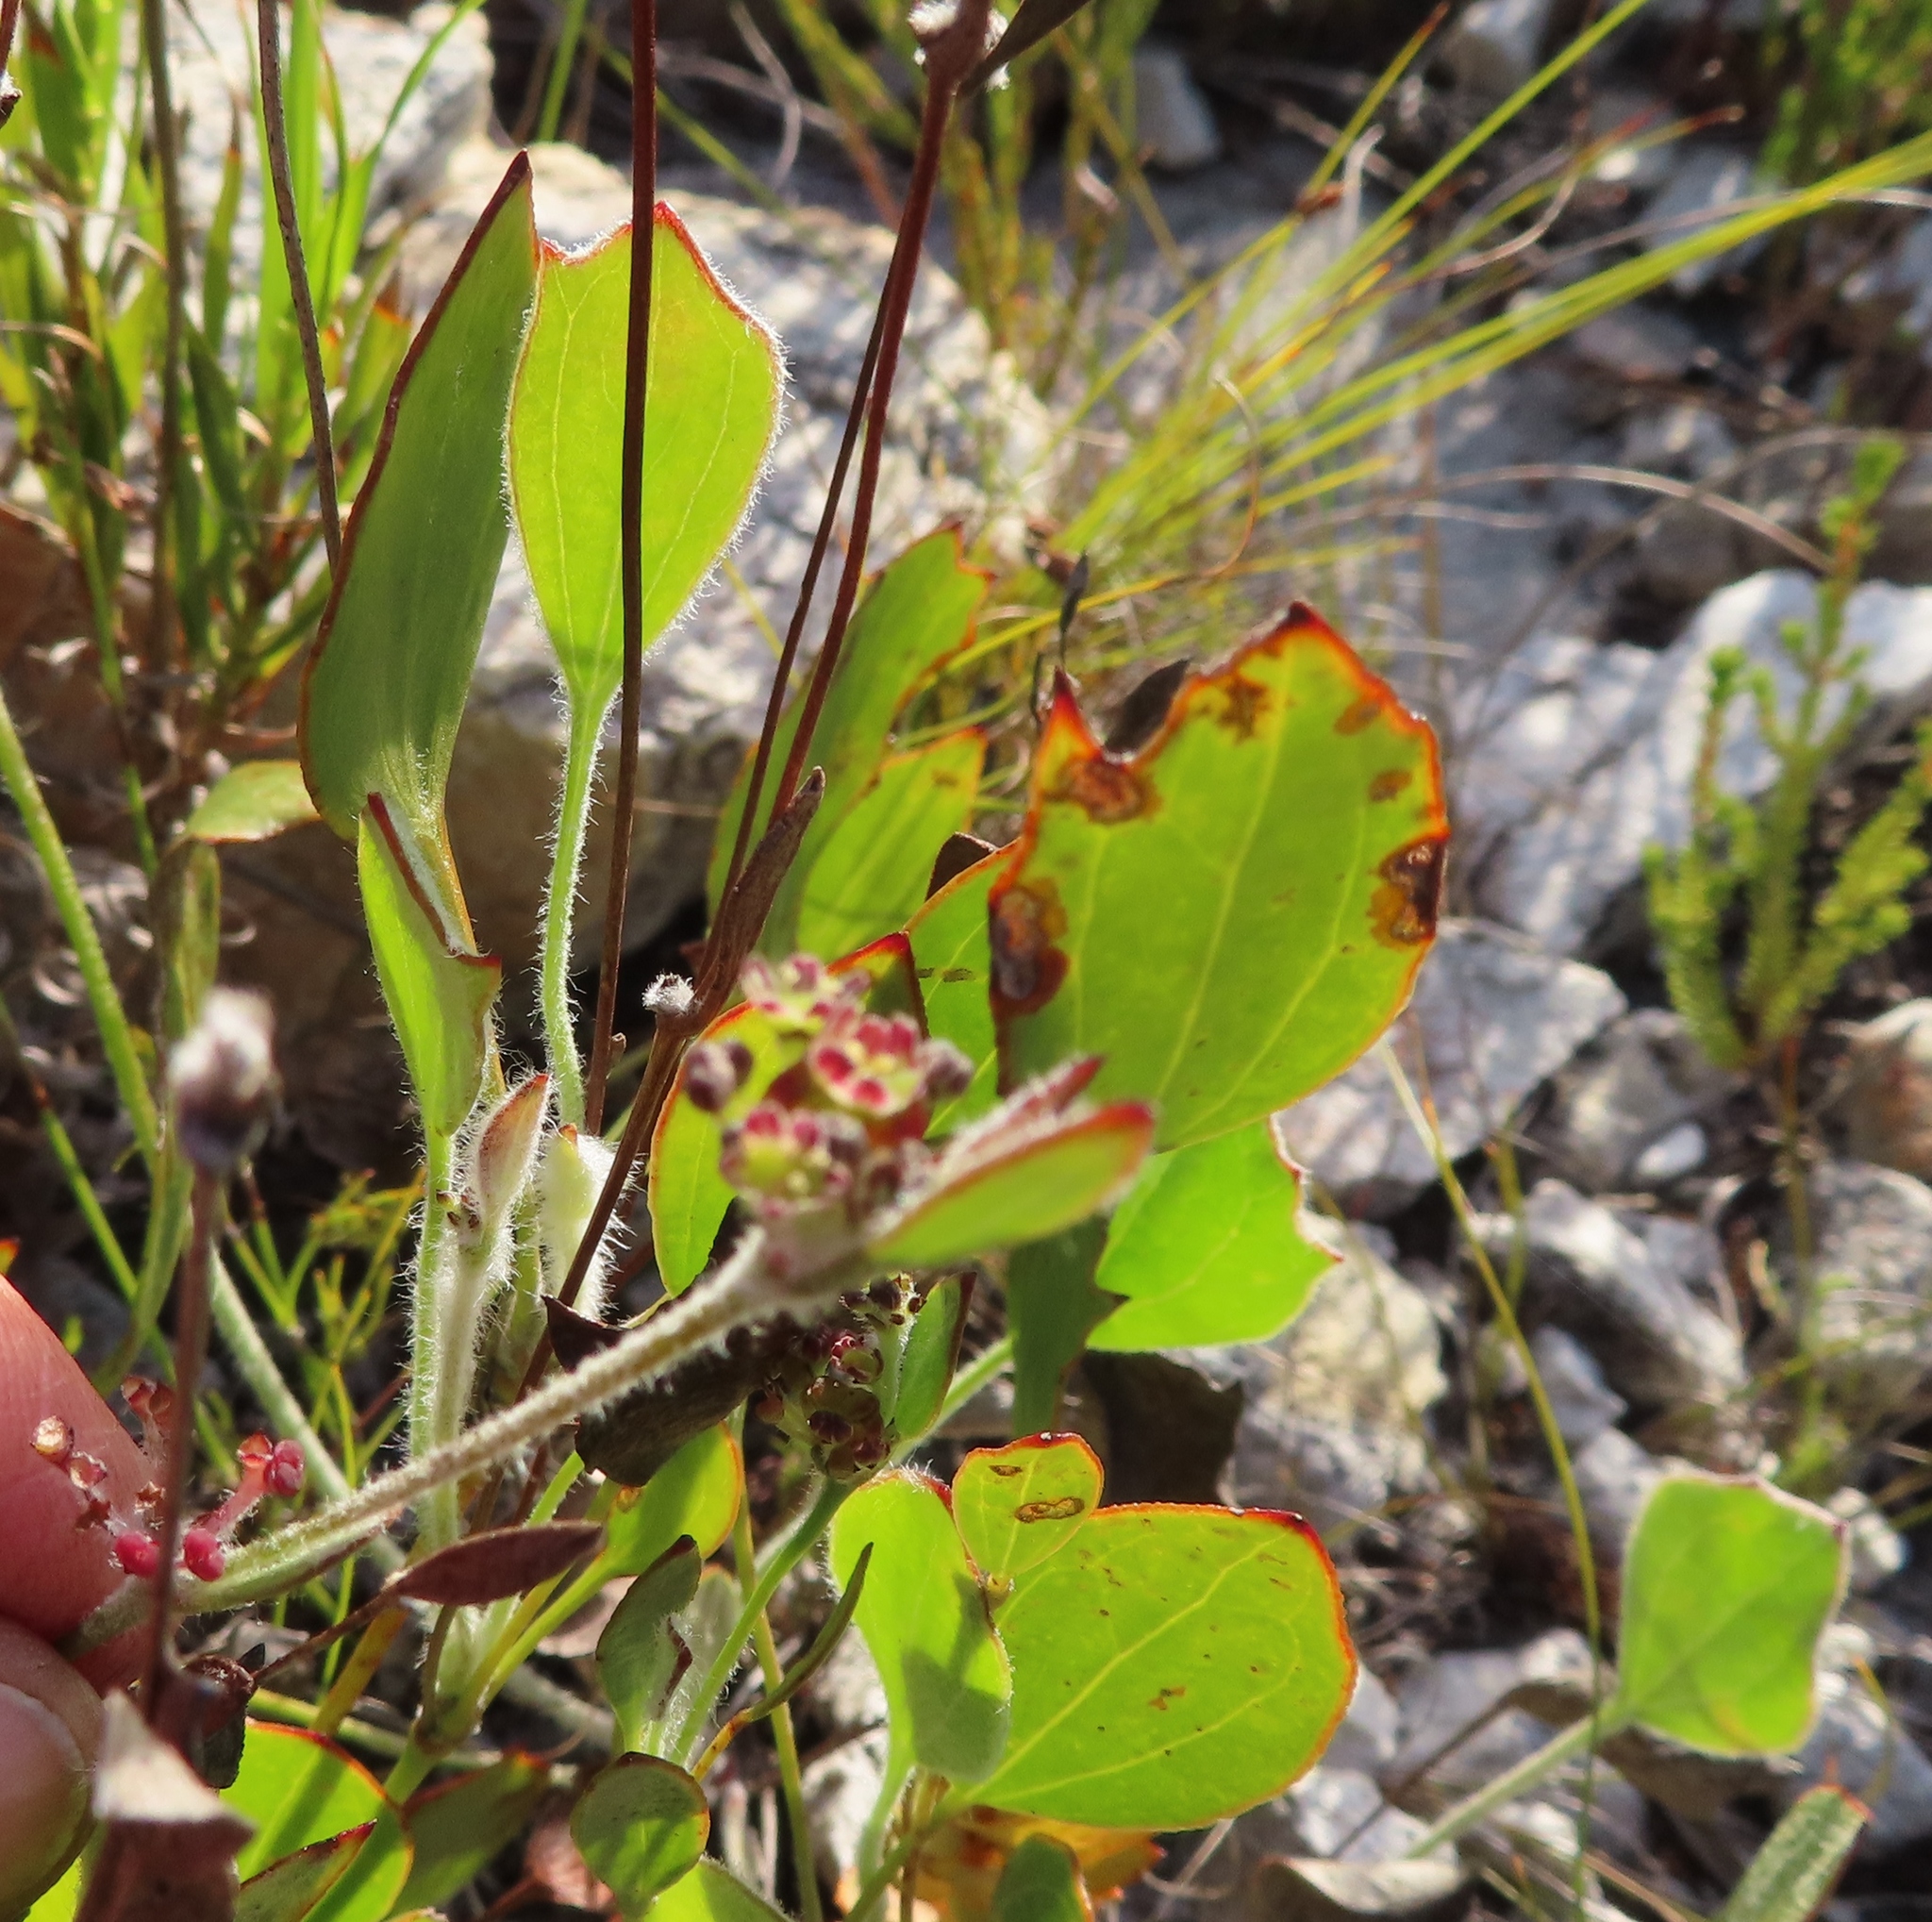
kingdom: Plantae
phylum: Tracheophyta
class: Magnoliopsida
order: Apiales
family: Apiaceae
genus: Centella
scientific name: Centella difformis
